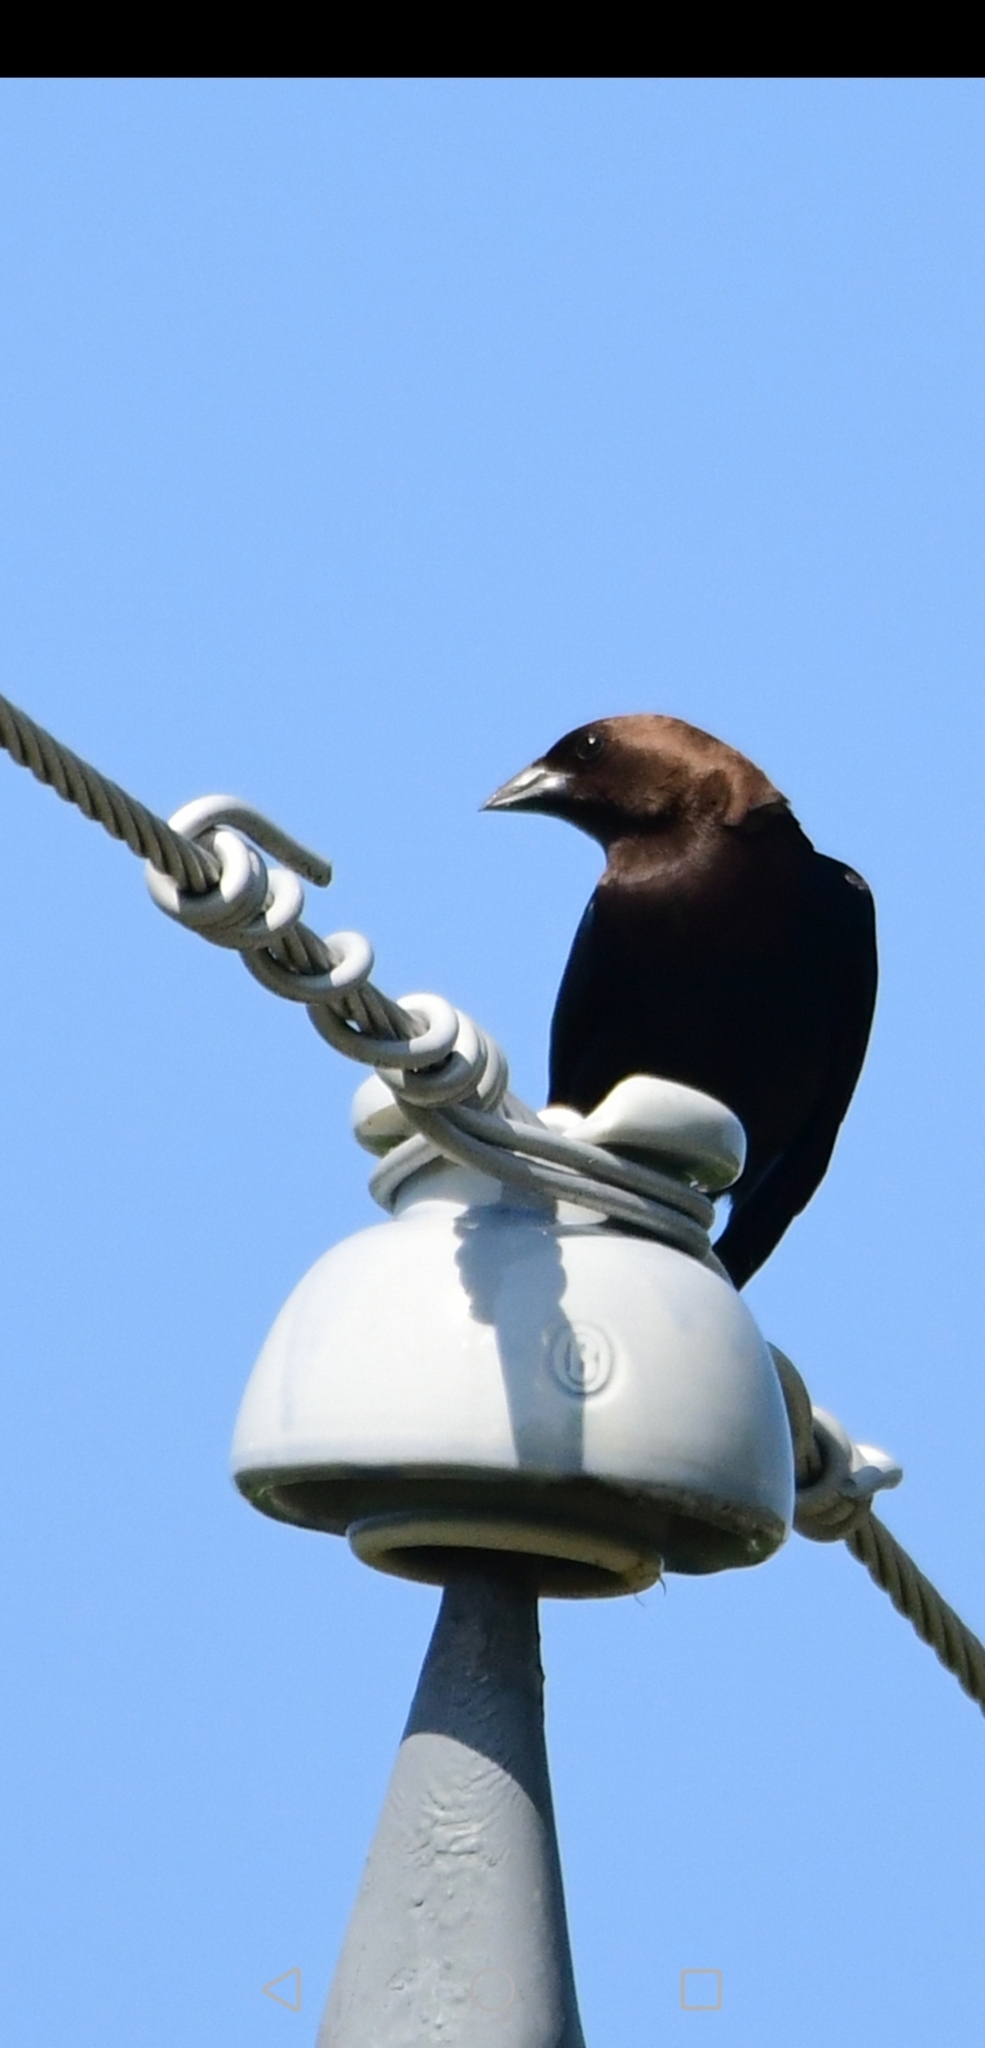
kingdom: Animalia
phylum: Chordata
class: Aves
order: Passeriformes
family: Icteridae
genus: Molothrus
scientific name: Molothrus ater
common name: Brown-headed cowbird
